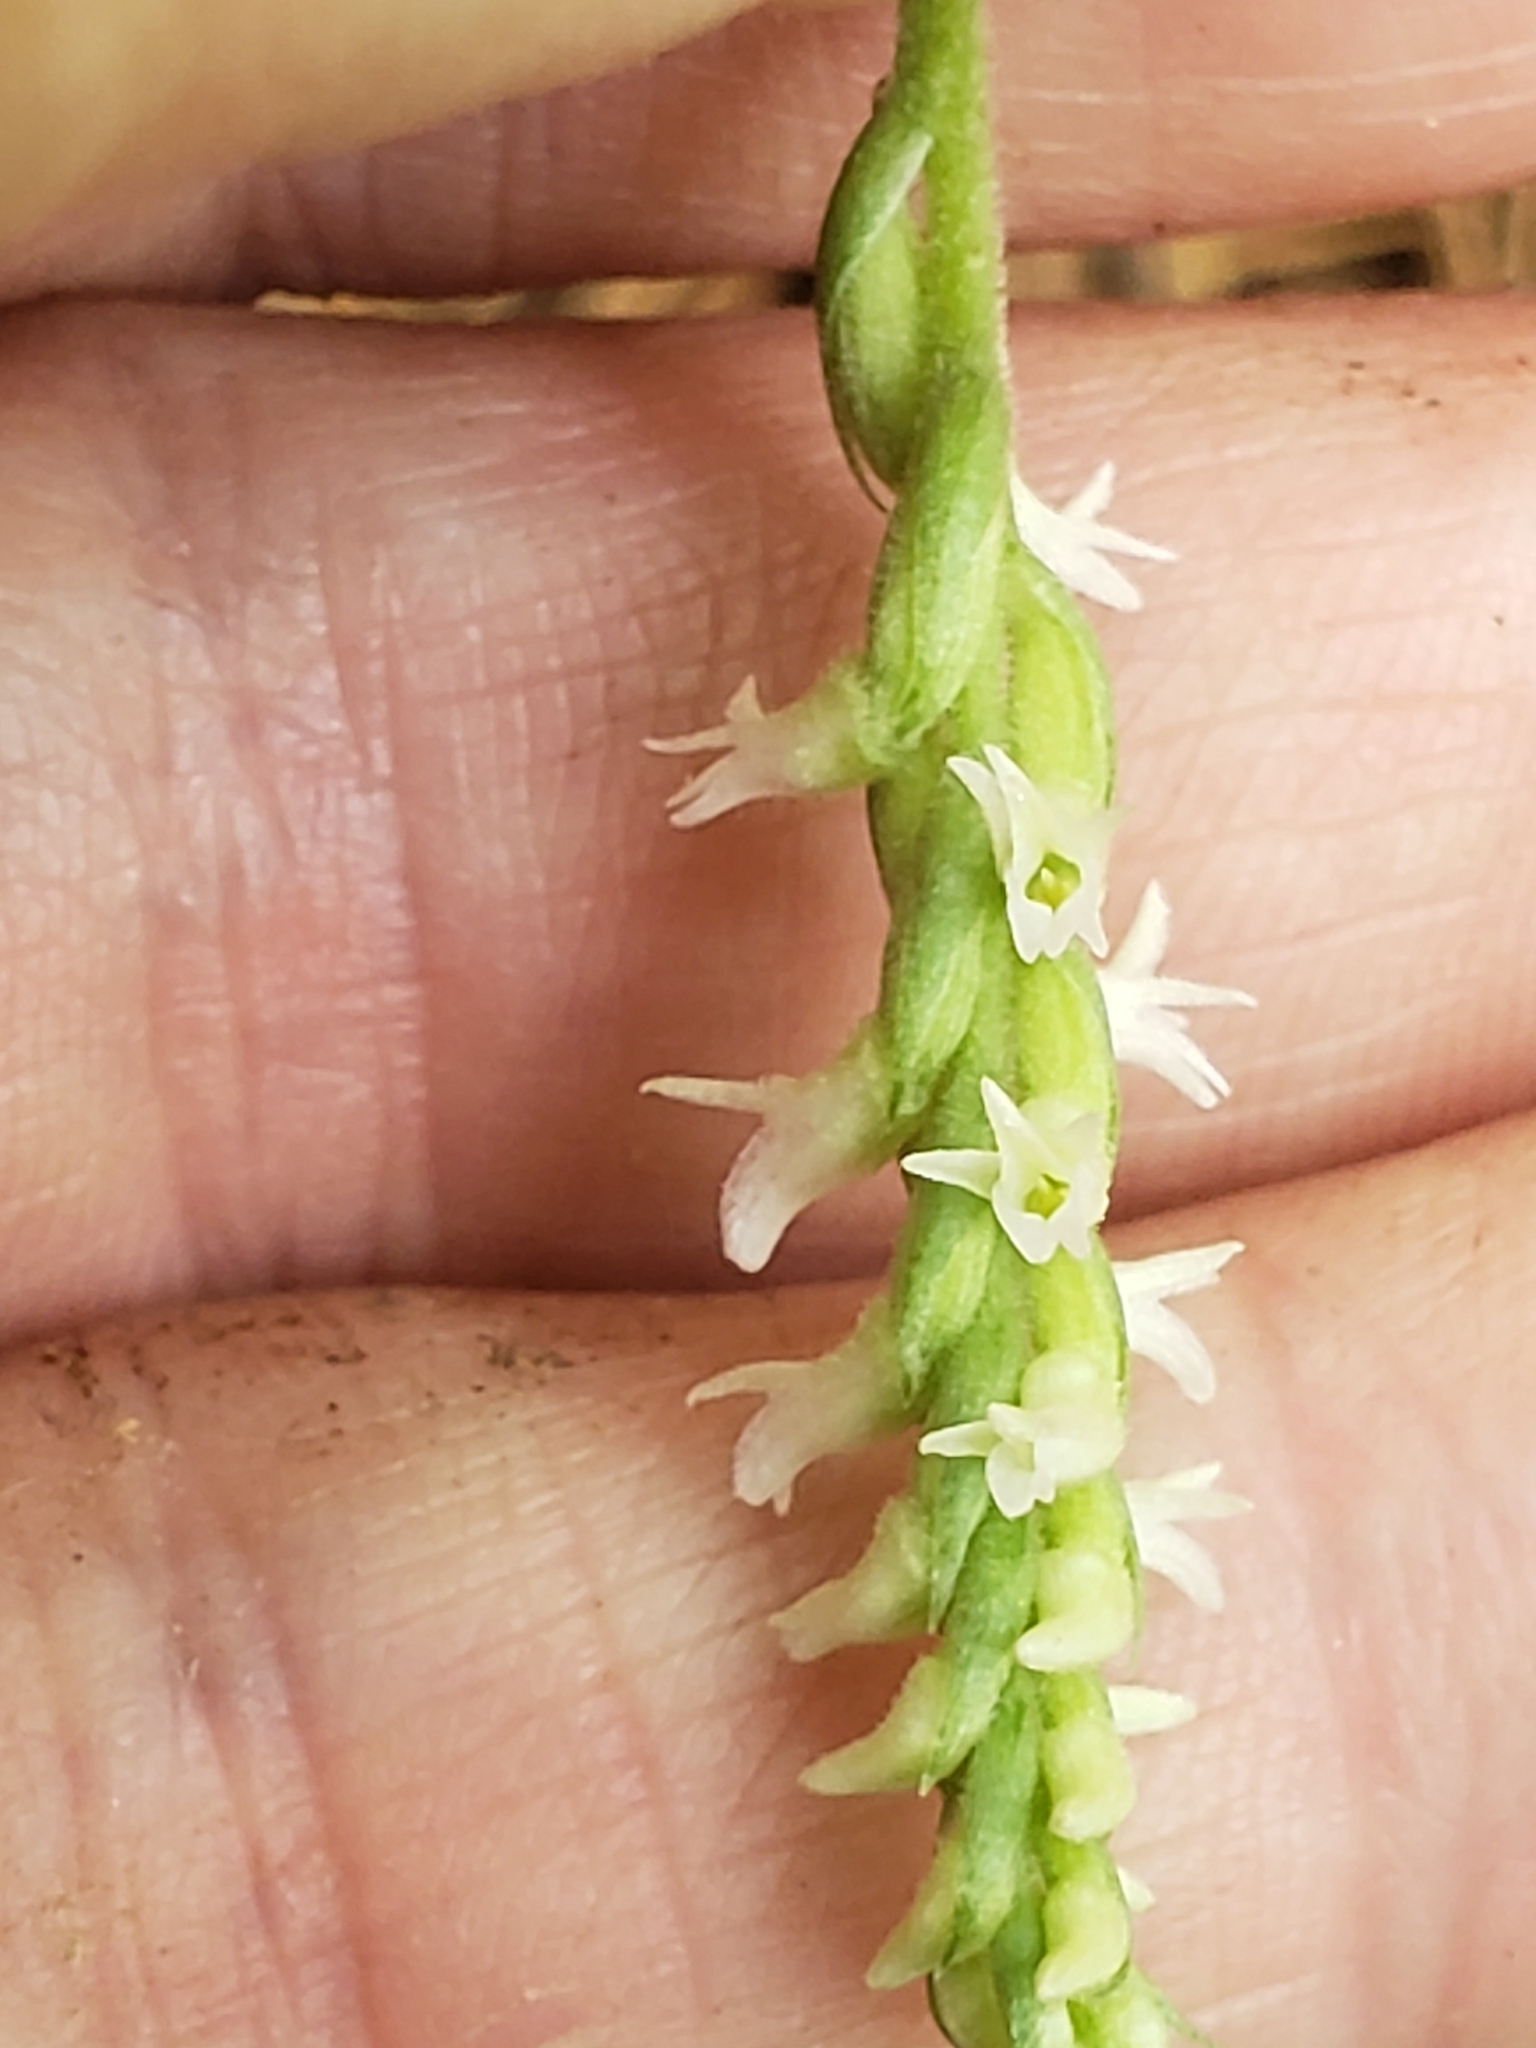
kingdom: Plantae
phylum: Tracheophyta
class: Liliopsida
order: Asparagales
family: Orchidaceae
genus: Spiranthes
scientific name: Spiranthes ovalis
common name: October ladies'-tresses
